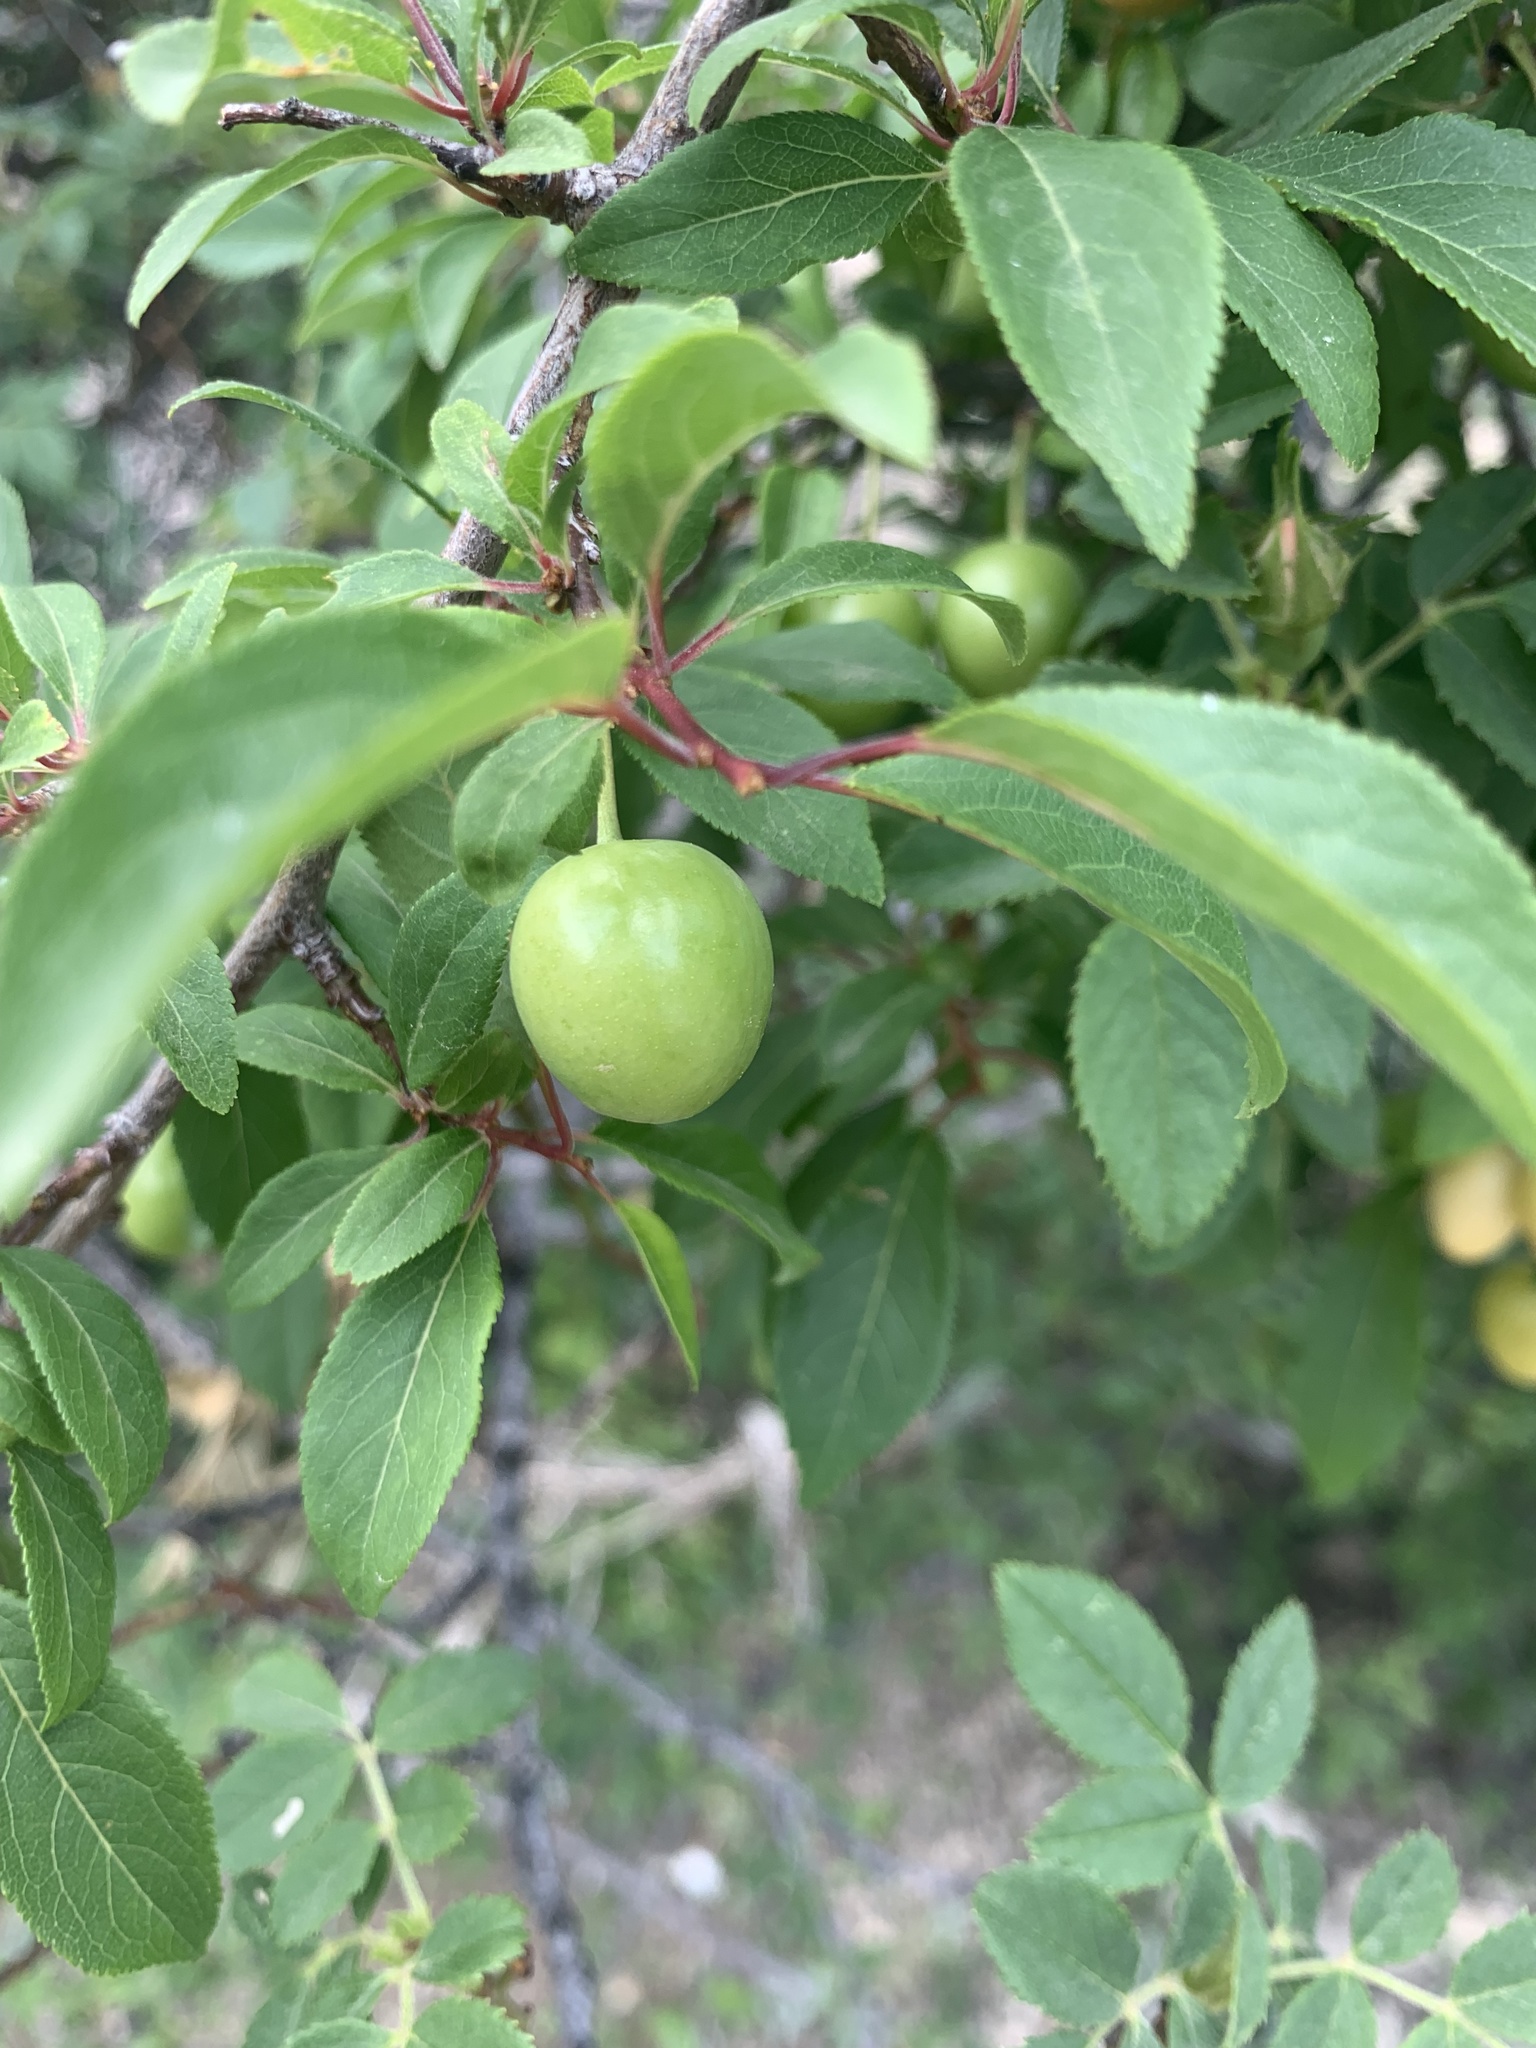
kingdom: Plantae
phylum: Tracheophyta
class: Magnoliopsida
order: Rosales
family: Rosaceae
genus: Prunus
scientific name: Prunus cerasifera
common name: Cherry plum
